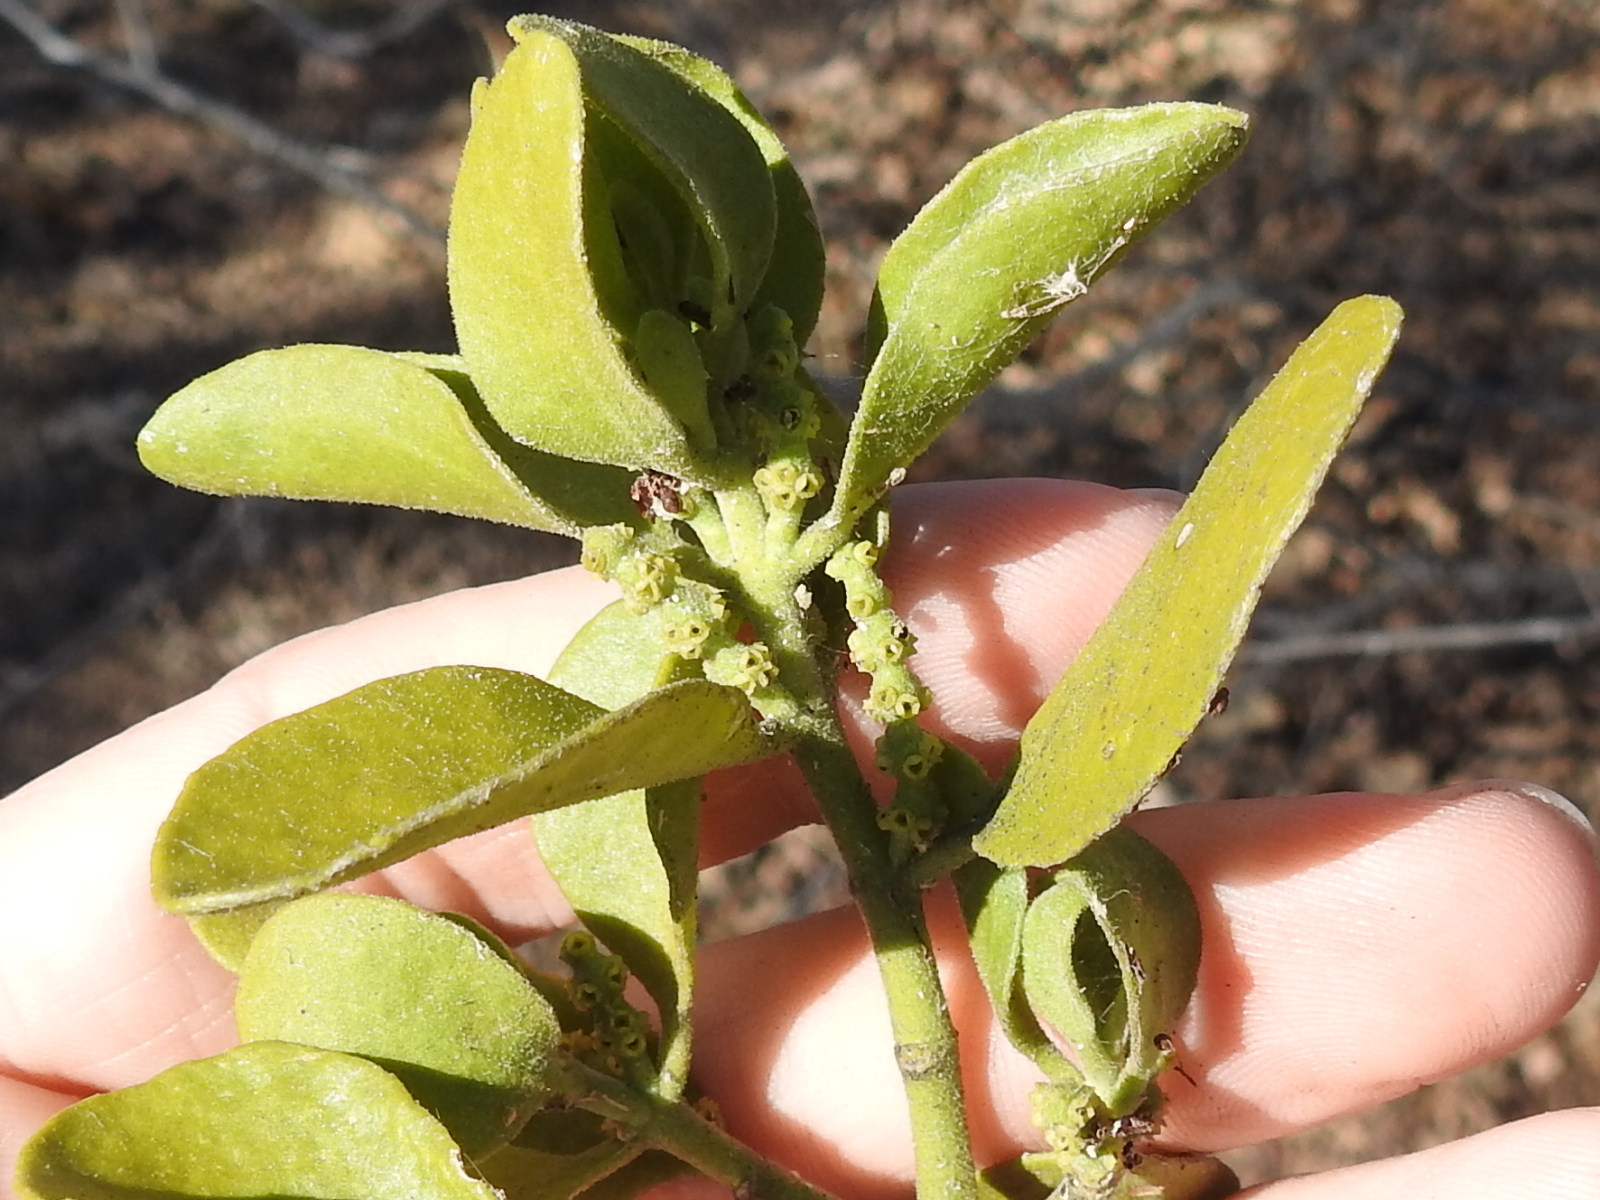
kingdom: Plantae
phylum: Tracheophyta
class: Magnoliopsida
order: Santalales
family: Viscaceae
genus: Phoradendron
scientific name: Phoradendron leucarpum
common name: Pacific mistletoe
